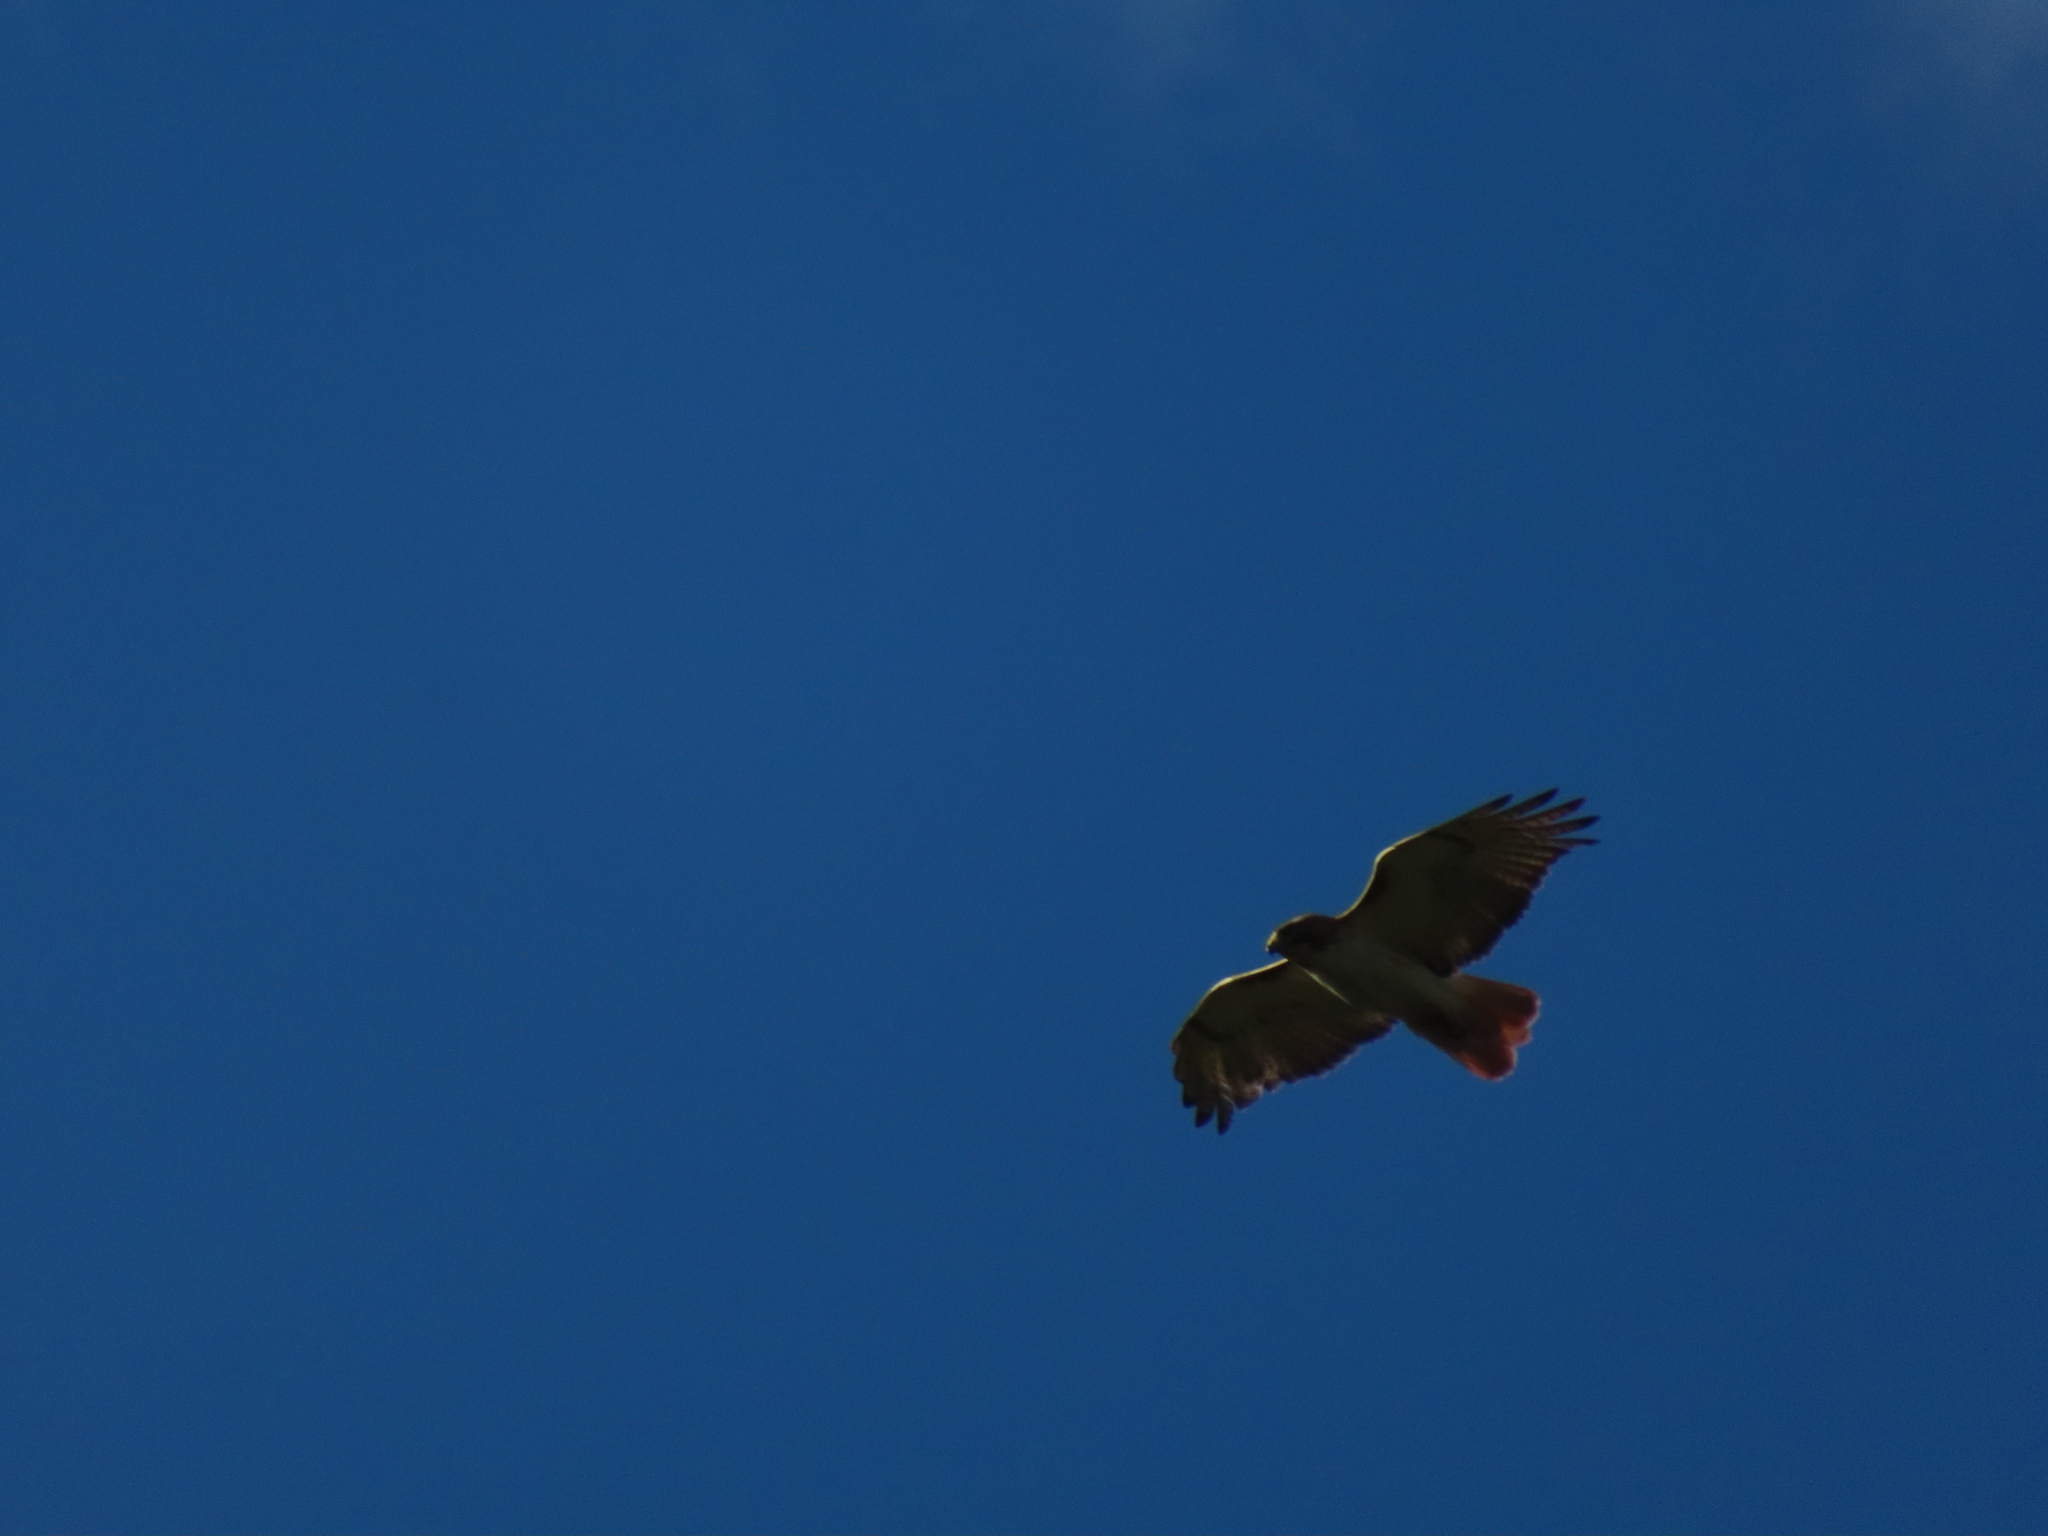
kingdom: Animalia
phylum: Chordata
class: Aves
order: Accipitriformes
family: Accipitridae
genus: Buteo
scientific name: Buteo jamaicensis
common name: Red-tailed hawk
